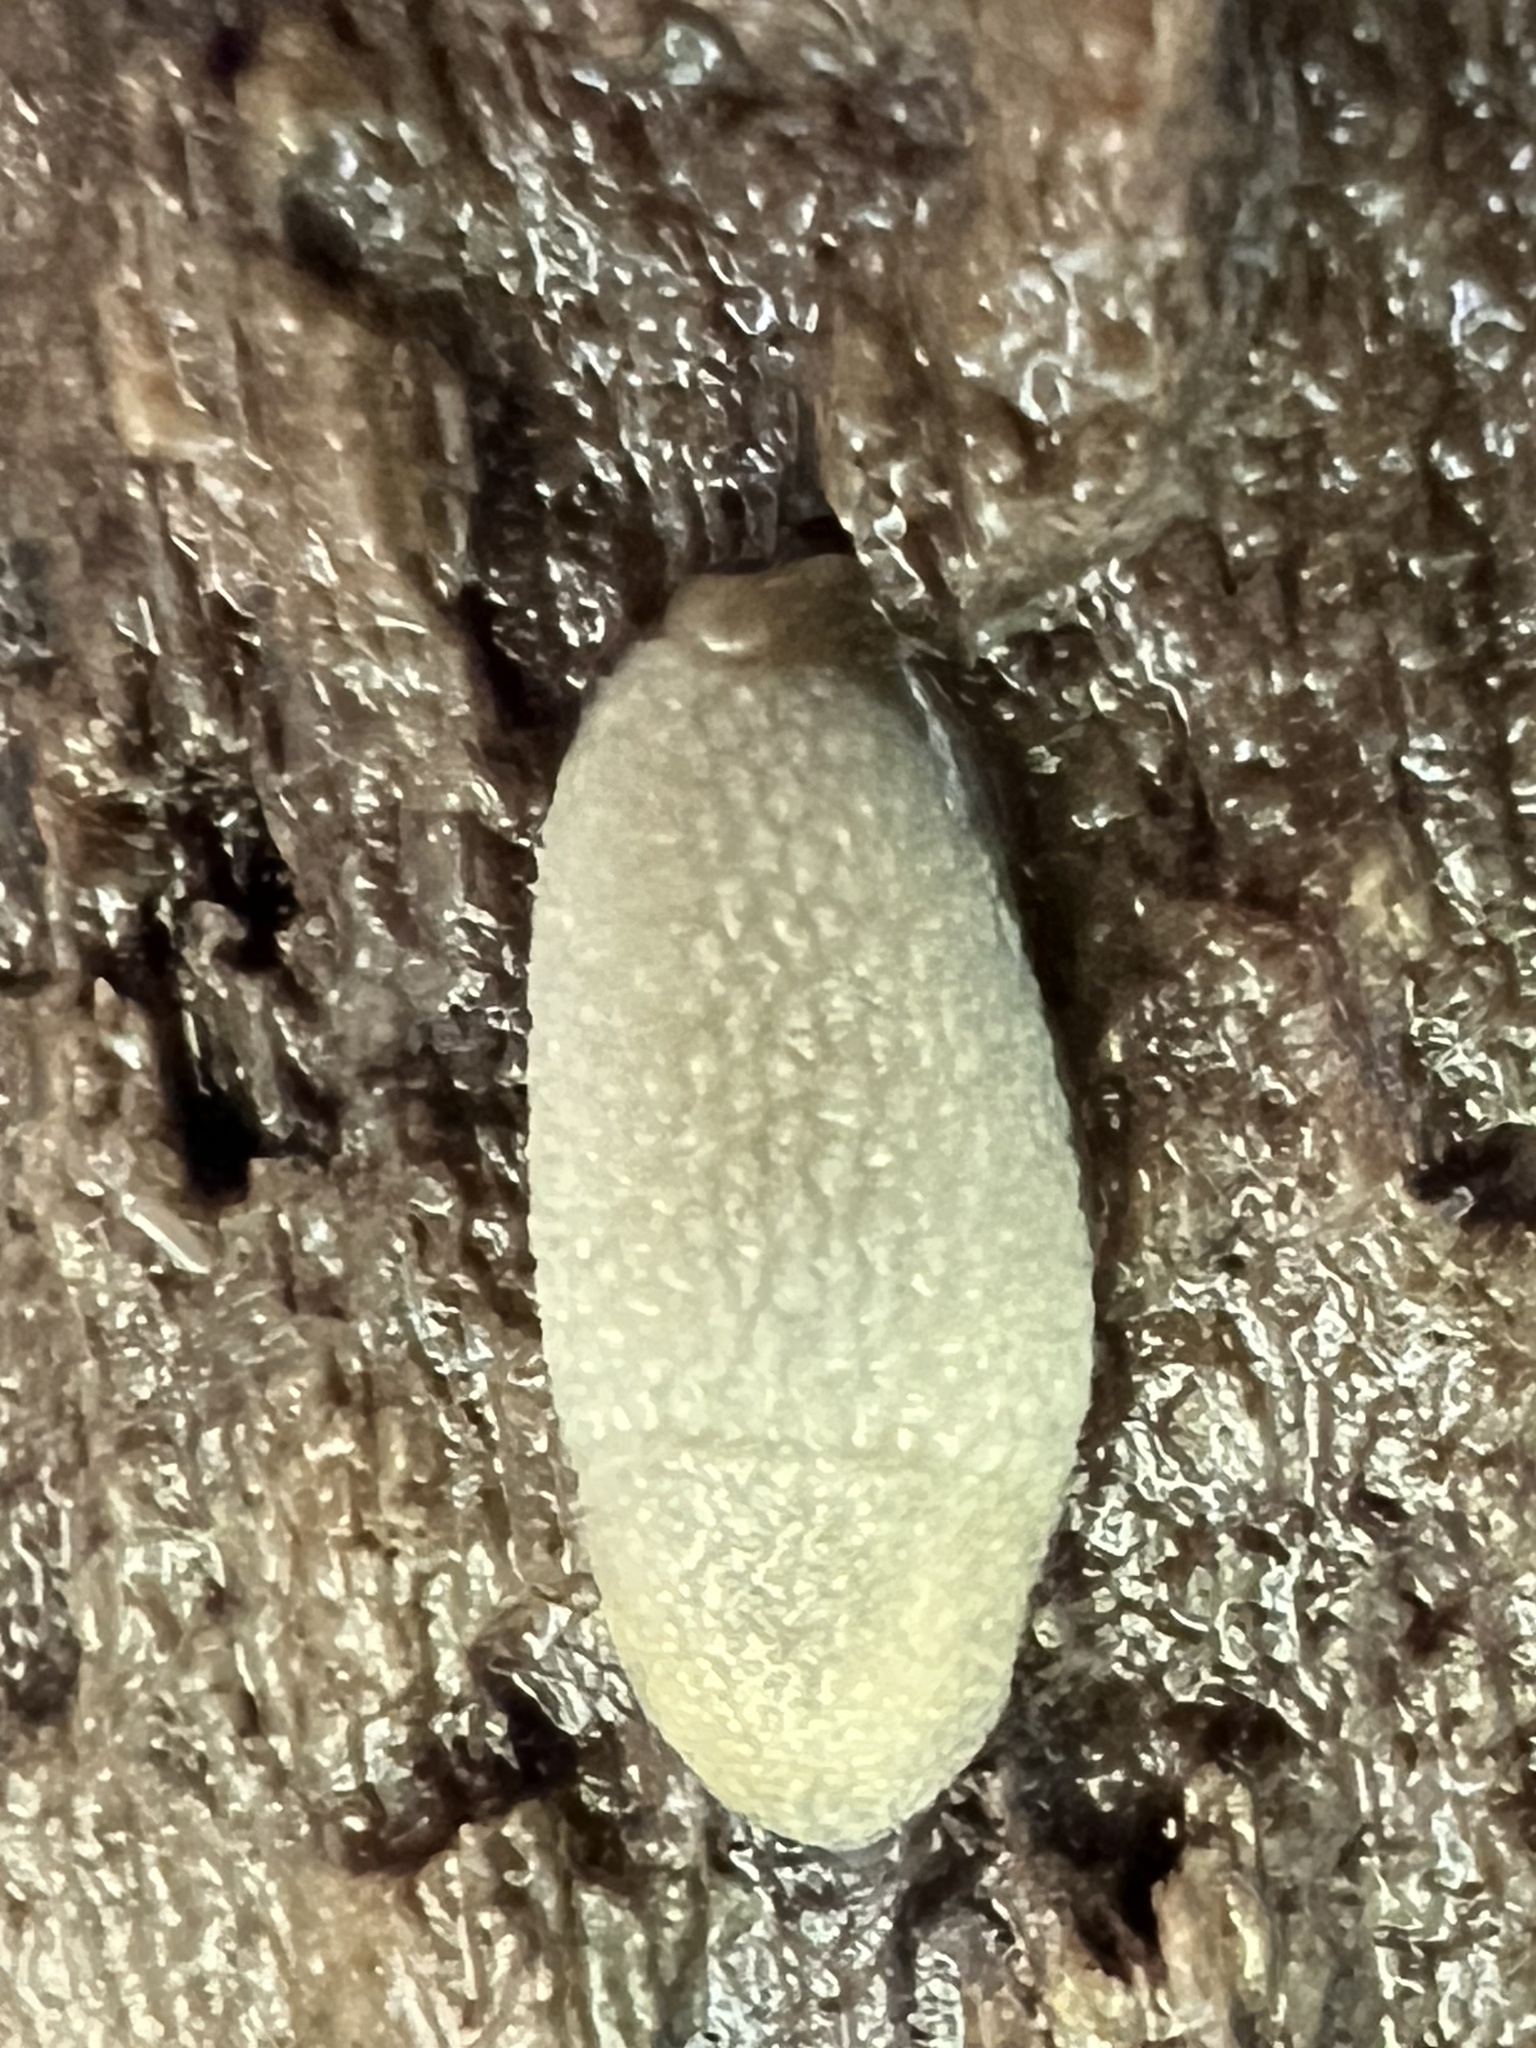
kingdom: Animalia
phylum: Mollusca
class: Gastropoda
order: Stylommatophora
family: Arionidae
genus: Arion
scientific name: Arion intermedius
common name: Hedgehog slug
